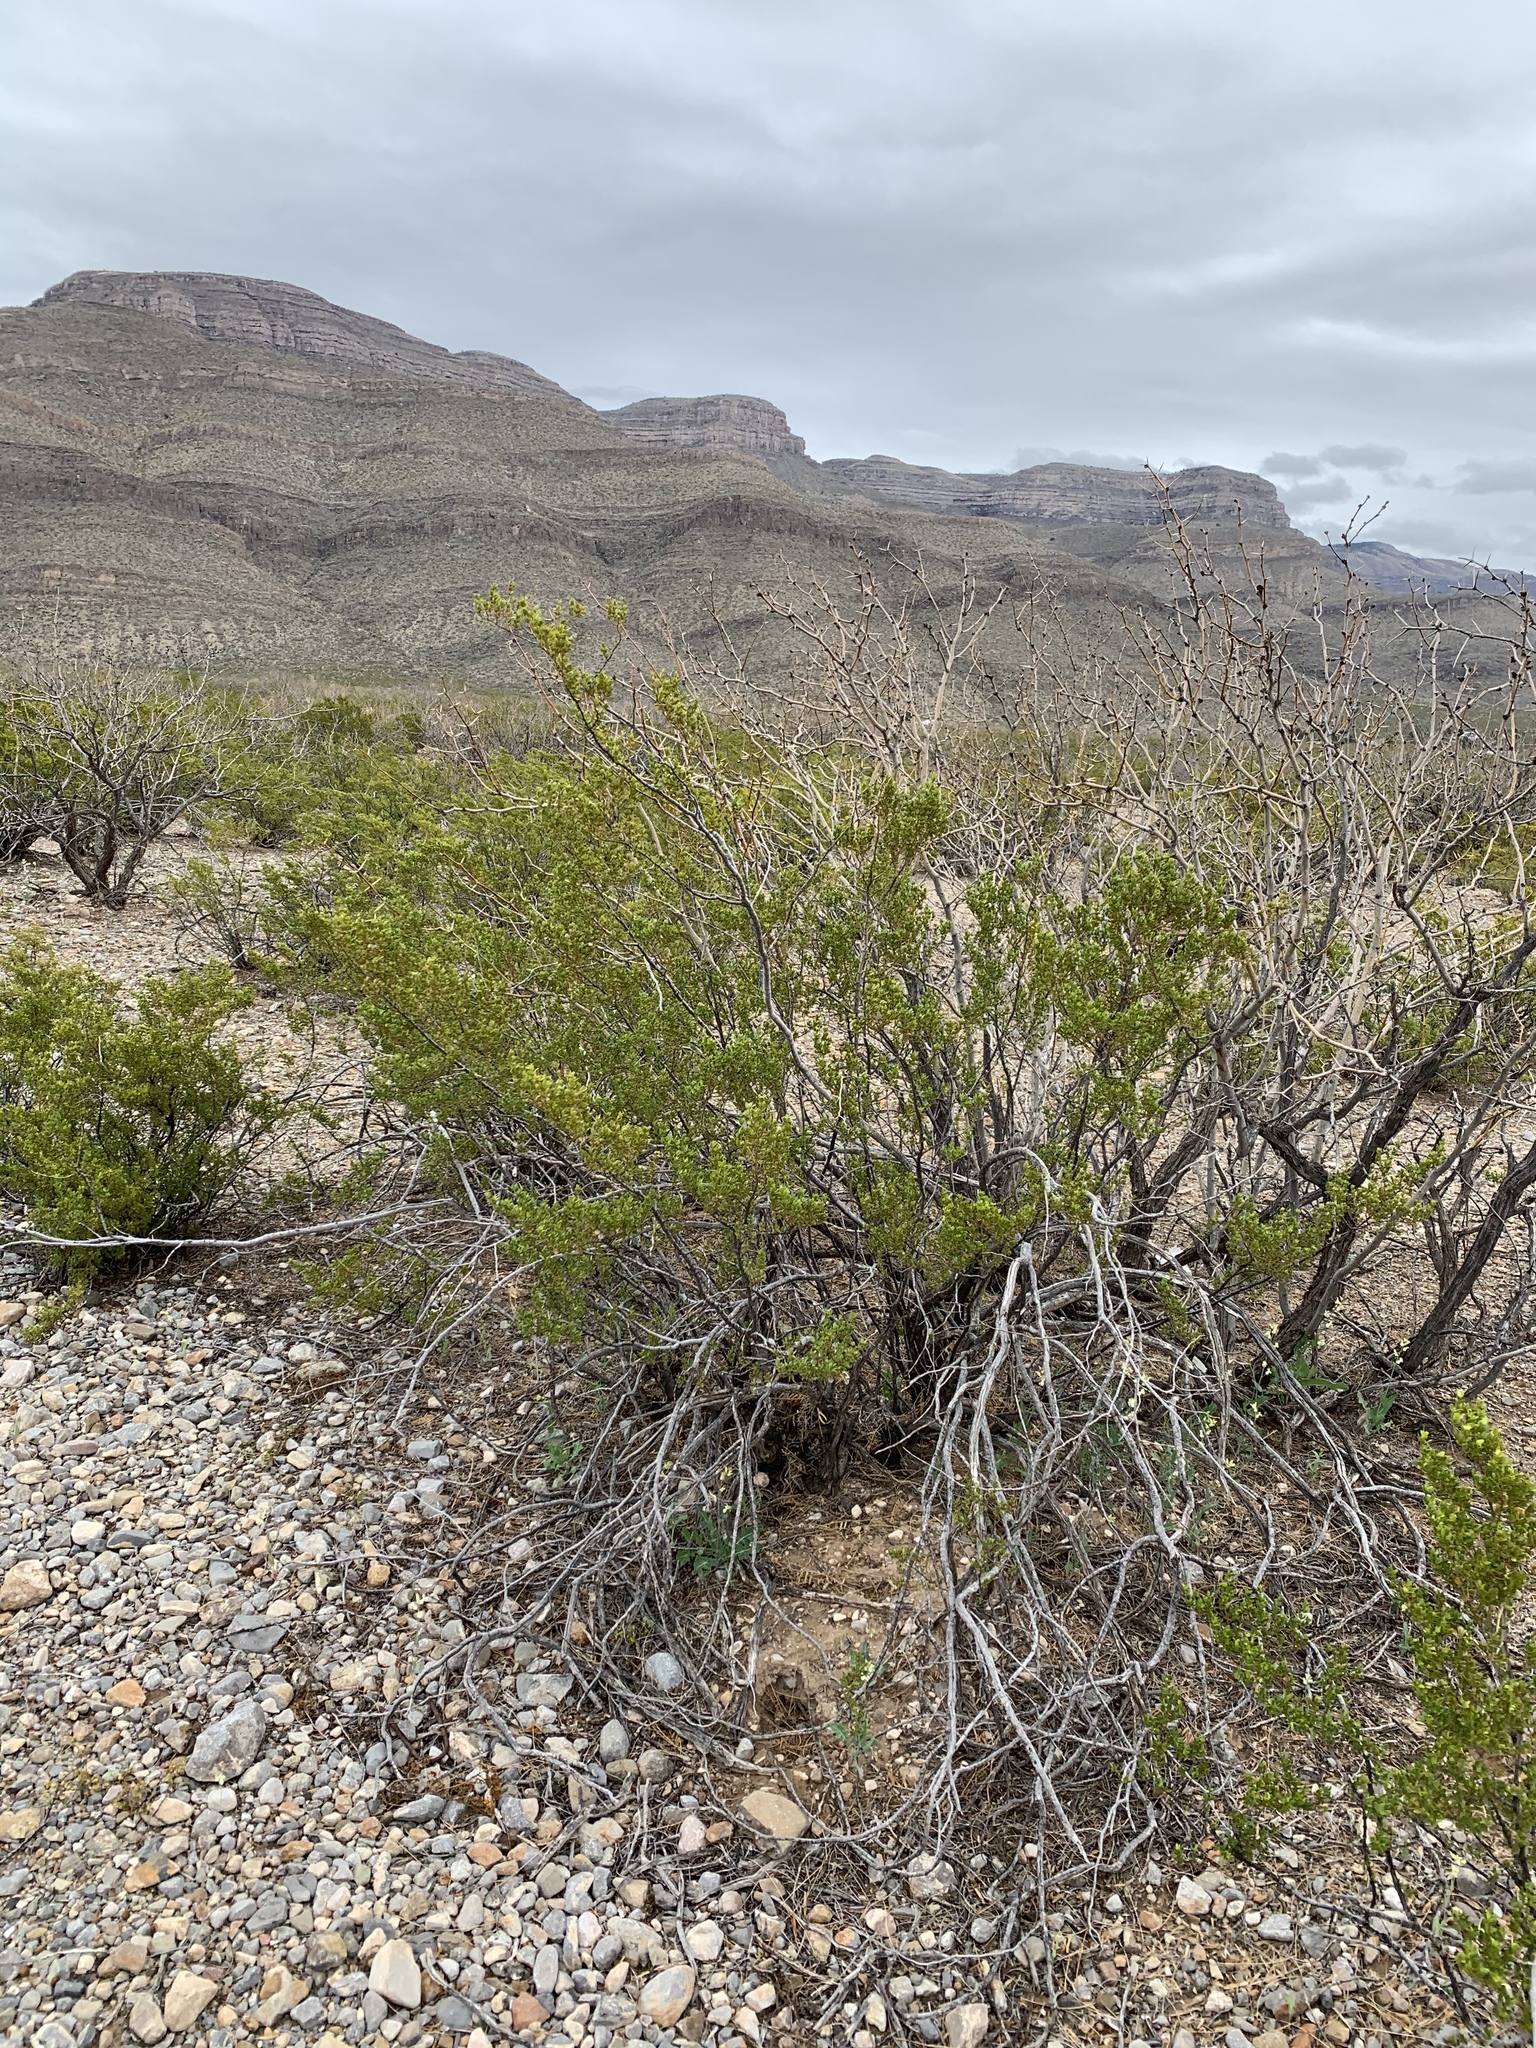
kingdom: Plantae
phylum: Tracheophyta
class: Magnoliopsida
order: Zygophyllales
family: Zygophyllaceae
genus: Larrea
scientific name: Larrea tridentata
